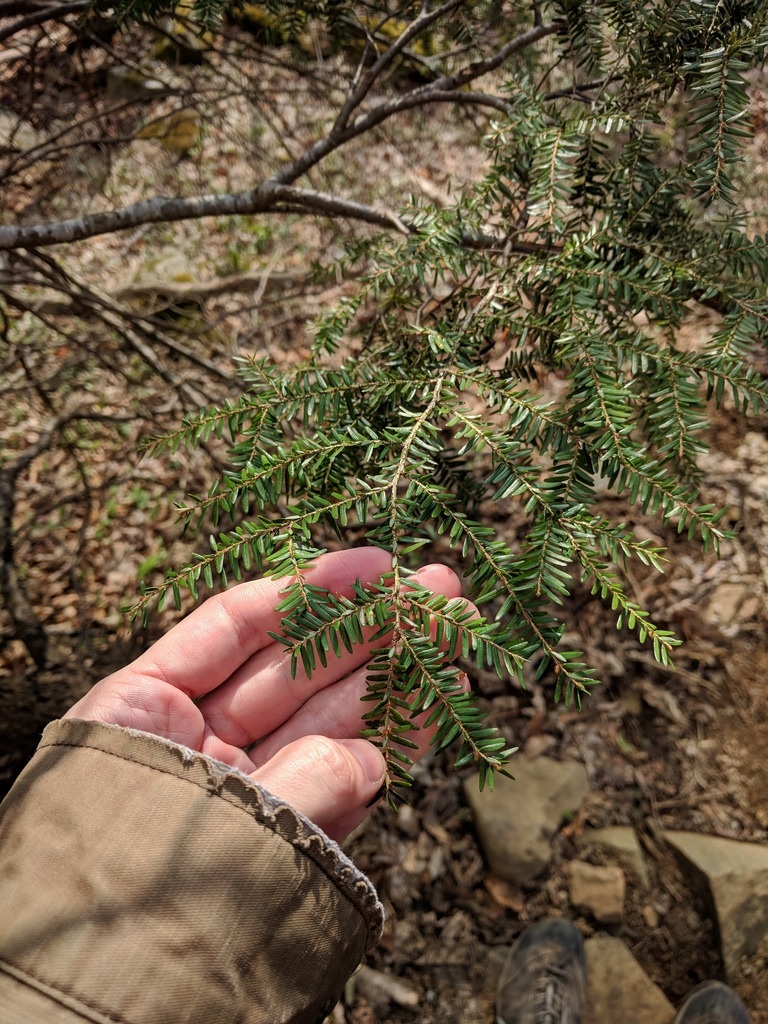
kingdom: Plantae
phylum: Tracheophyta
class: Pinopsida
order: Pinales
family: Pinaceae
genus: Tsuga
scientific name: Tsuga canadensis
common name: Eastern hemlock
